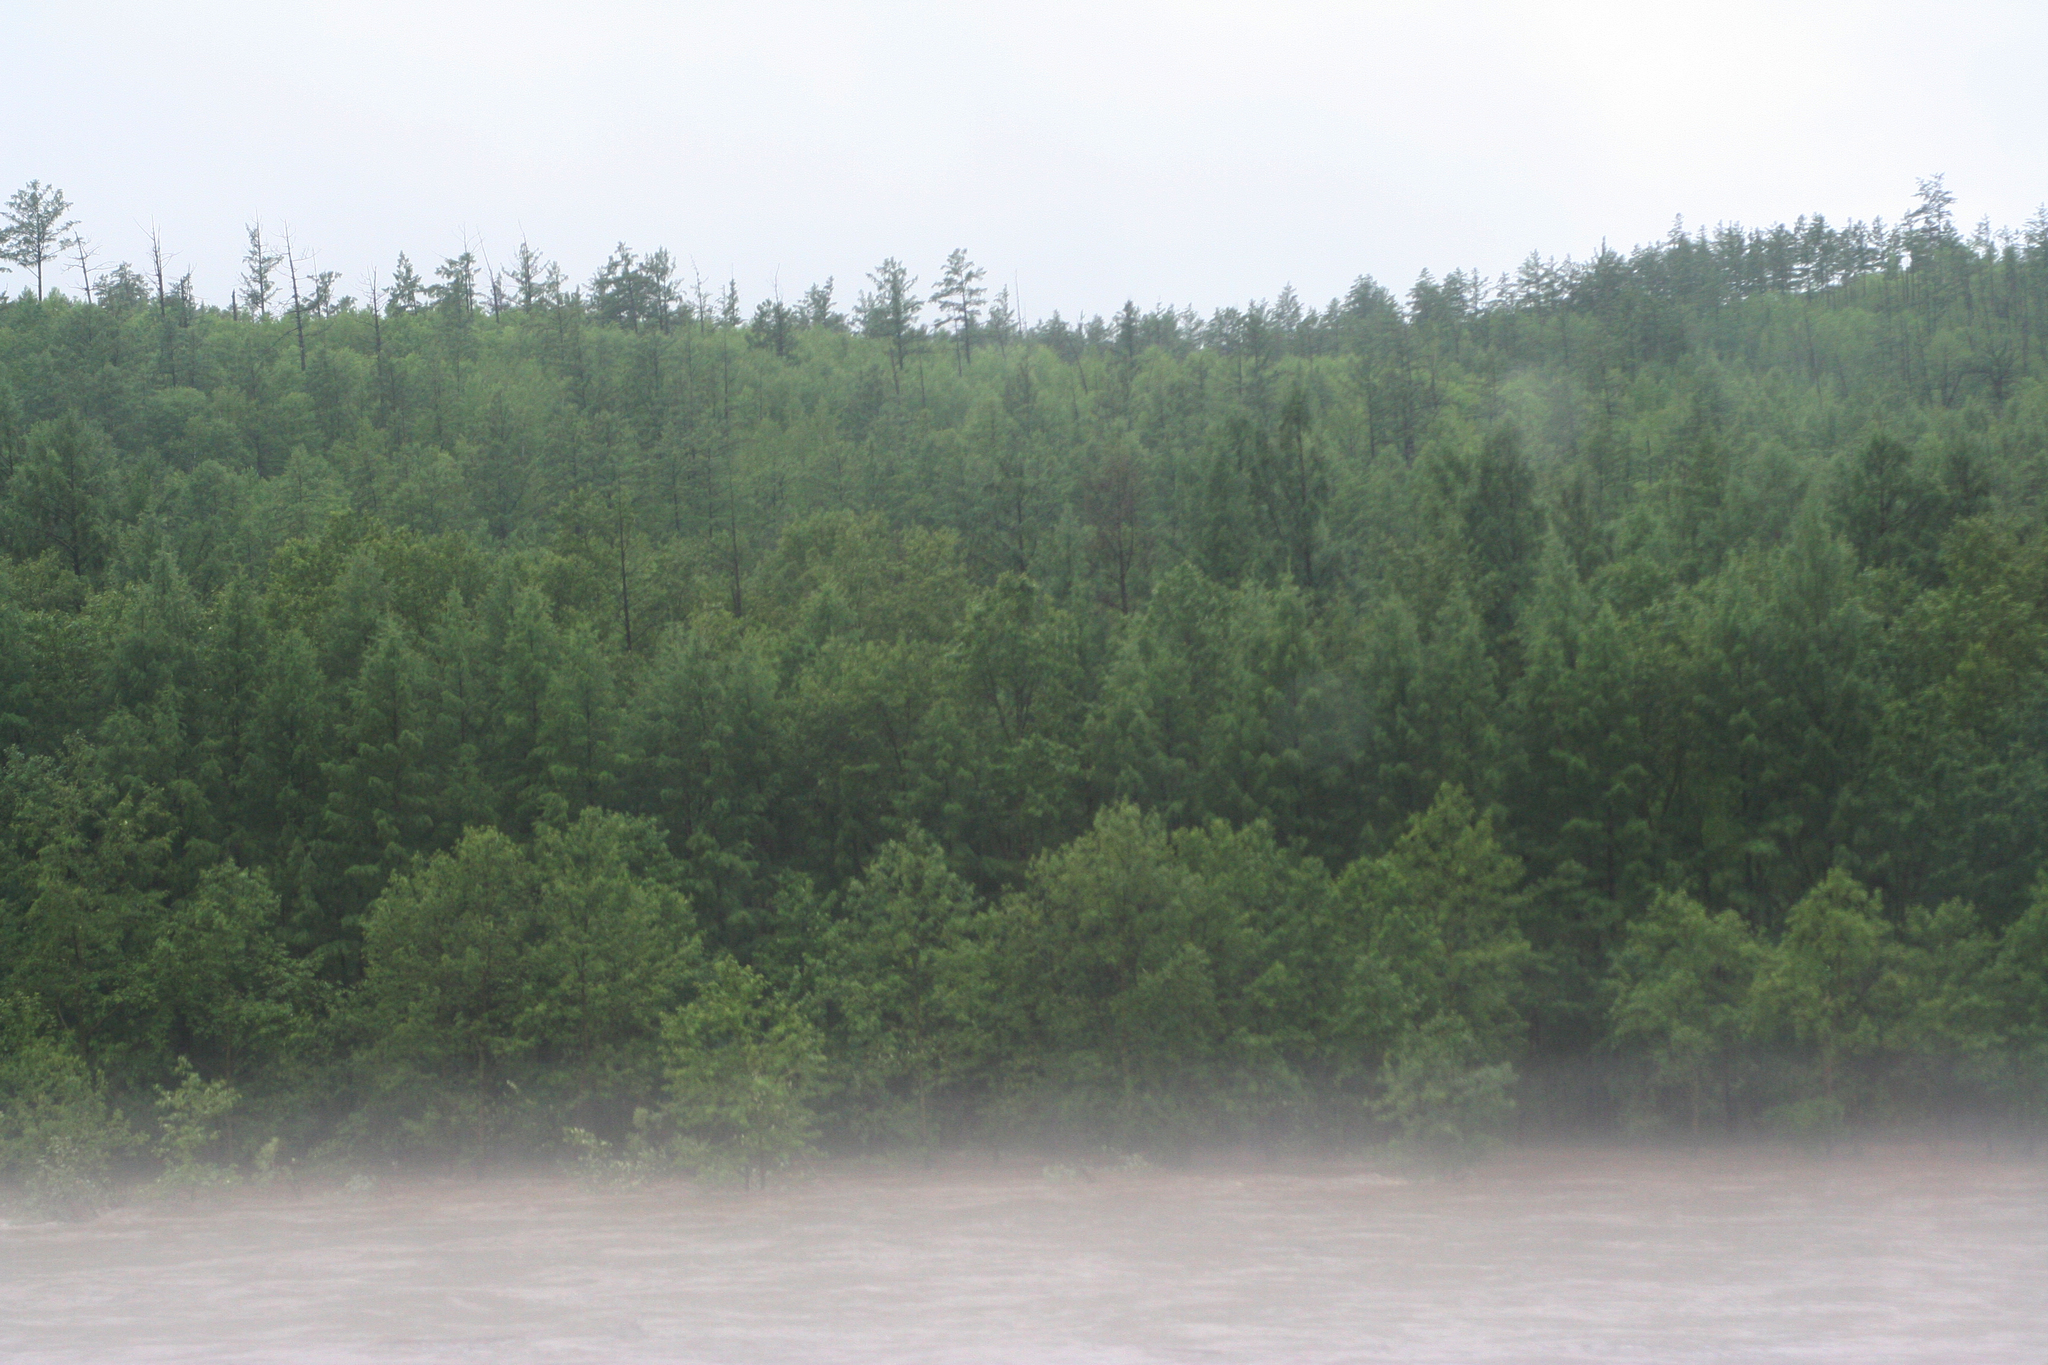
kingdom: Plantae
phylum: Tracheophyta
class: Pinopsida
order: Pinales
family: Pinaceae
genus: Larix
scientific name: Larix gmelinii
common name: Dahurian larch
